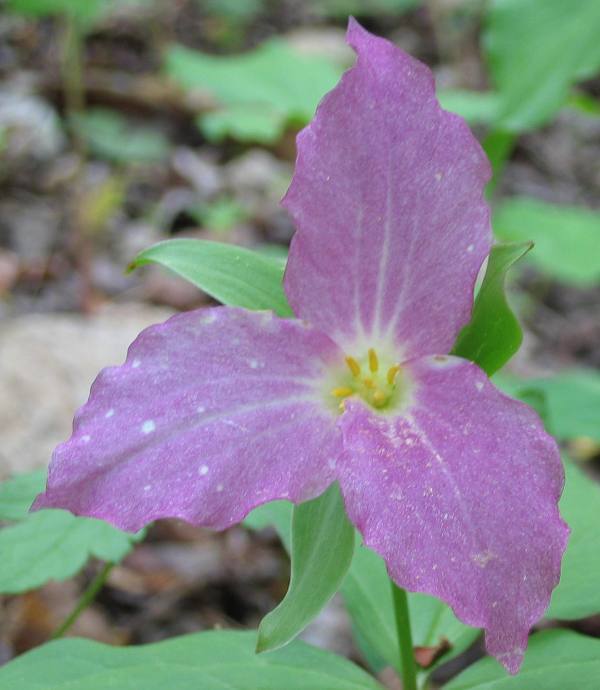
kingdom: Plantae
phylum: Tracheophyta
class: Liliopsida
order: Liliales
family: Melanthiaceae
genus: Trillium
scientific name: Trillium grandiflorum
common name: Great white trillium
